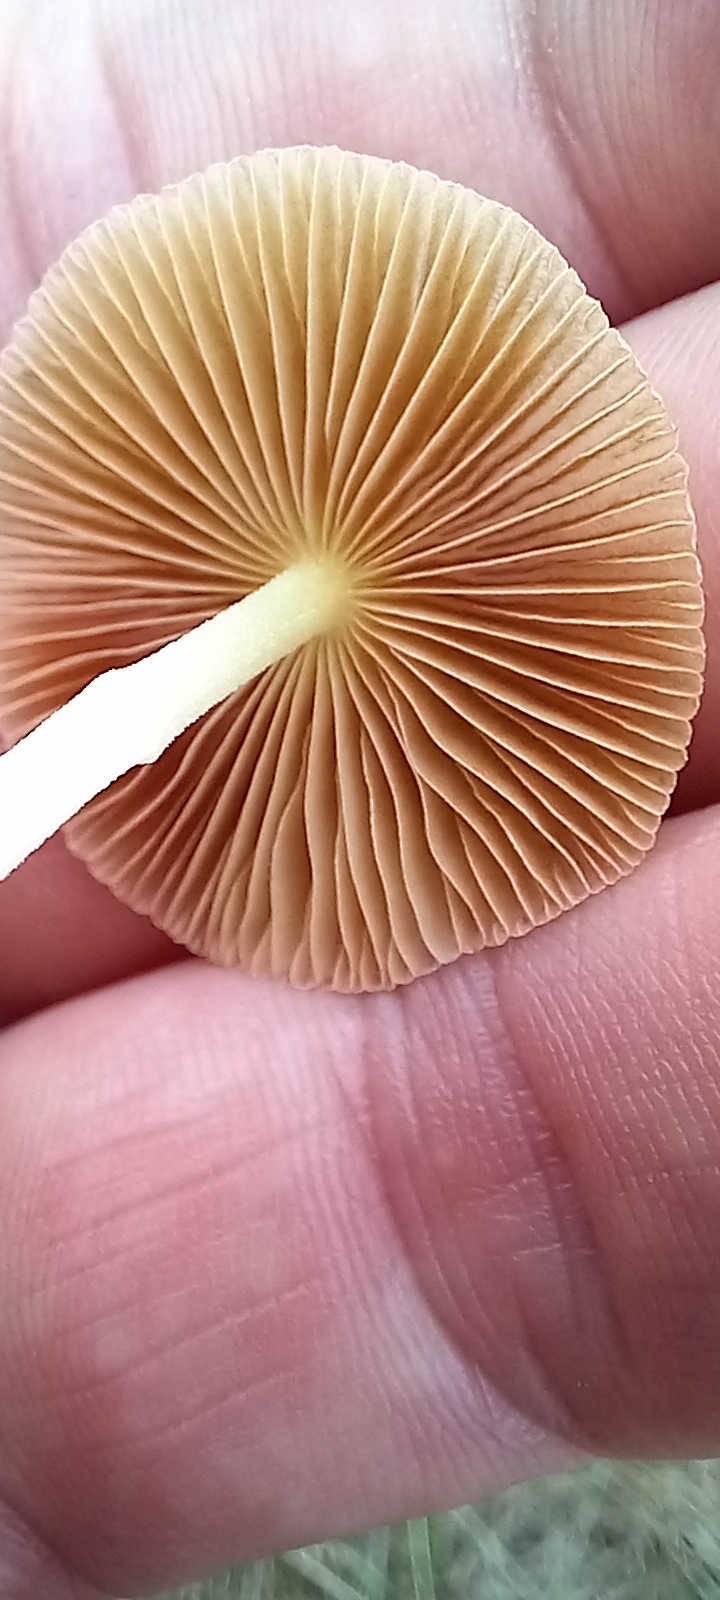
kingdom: Fungi
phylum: Basidiomycota
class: Agaricomycetes
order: Agaricales
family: Bolbitiaceae
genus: Bolbitius
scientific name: Bolbitius titubans
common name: Yellow fieldcap
